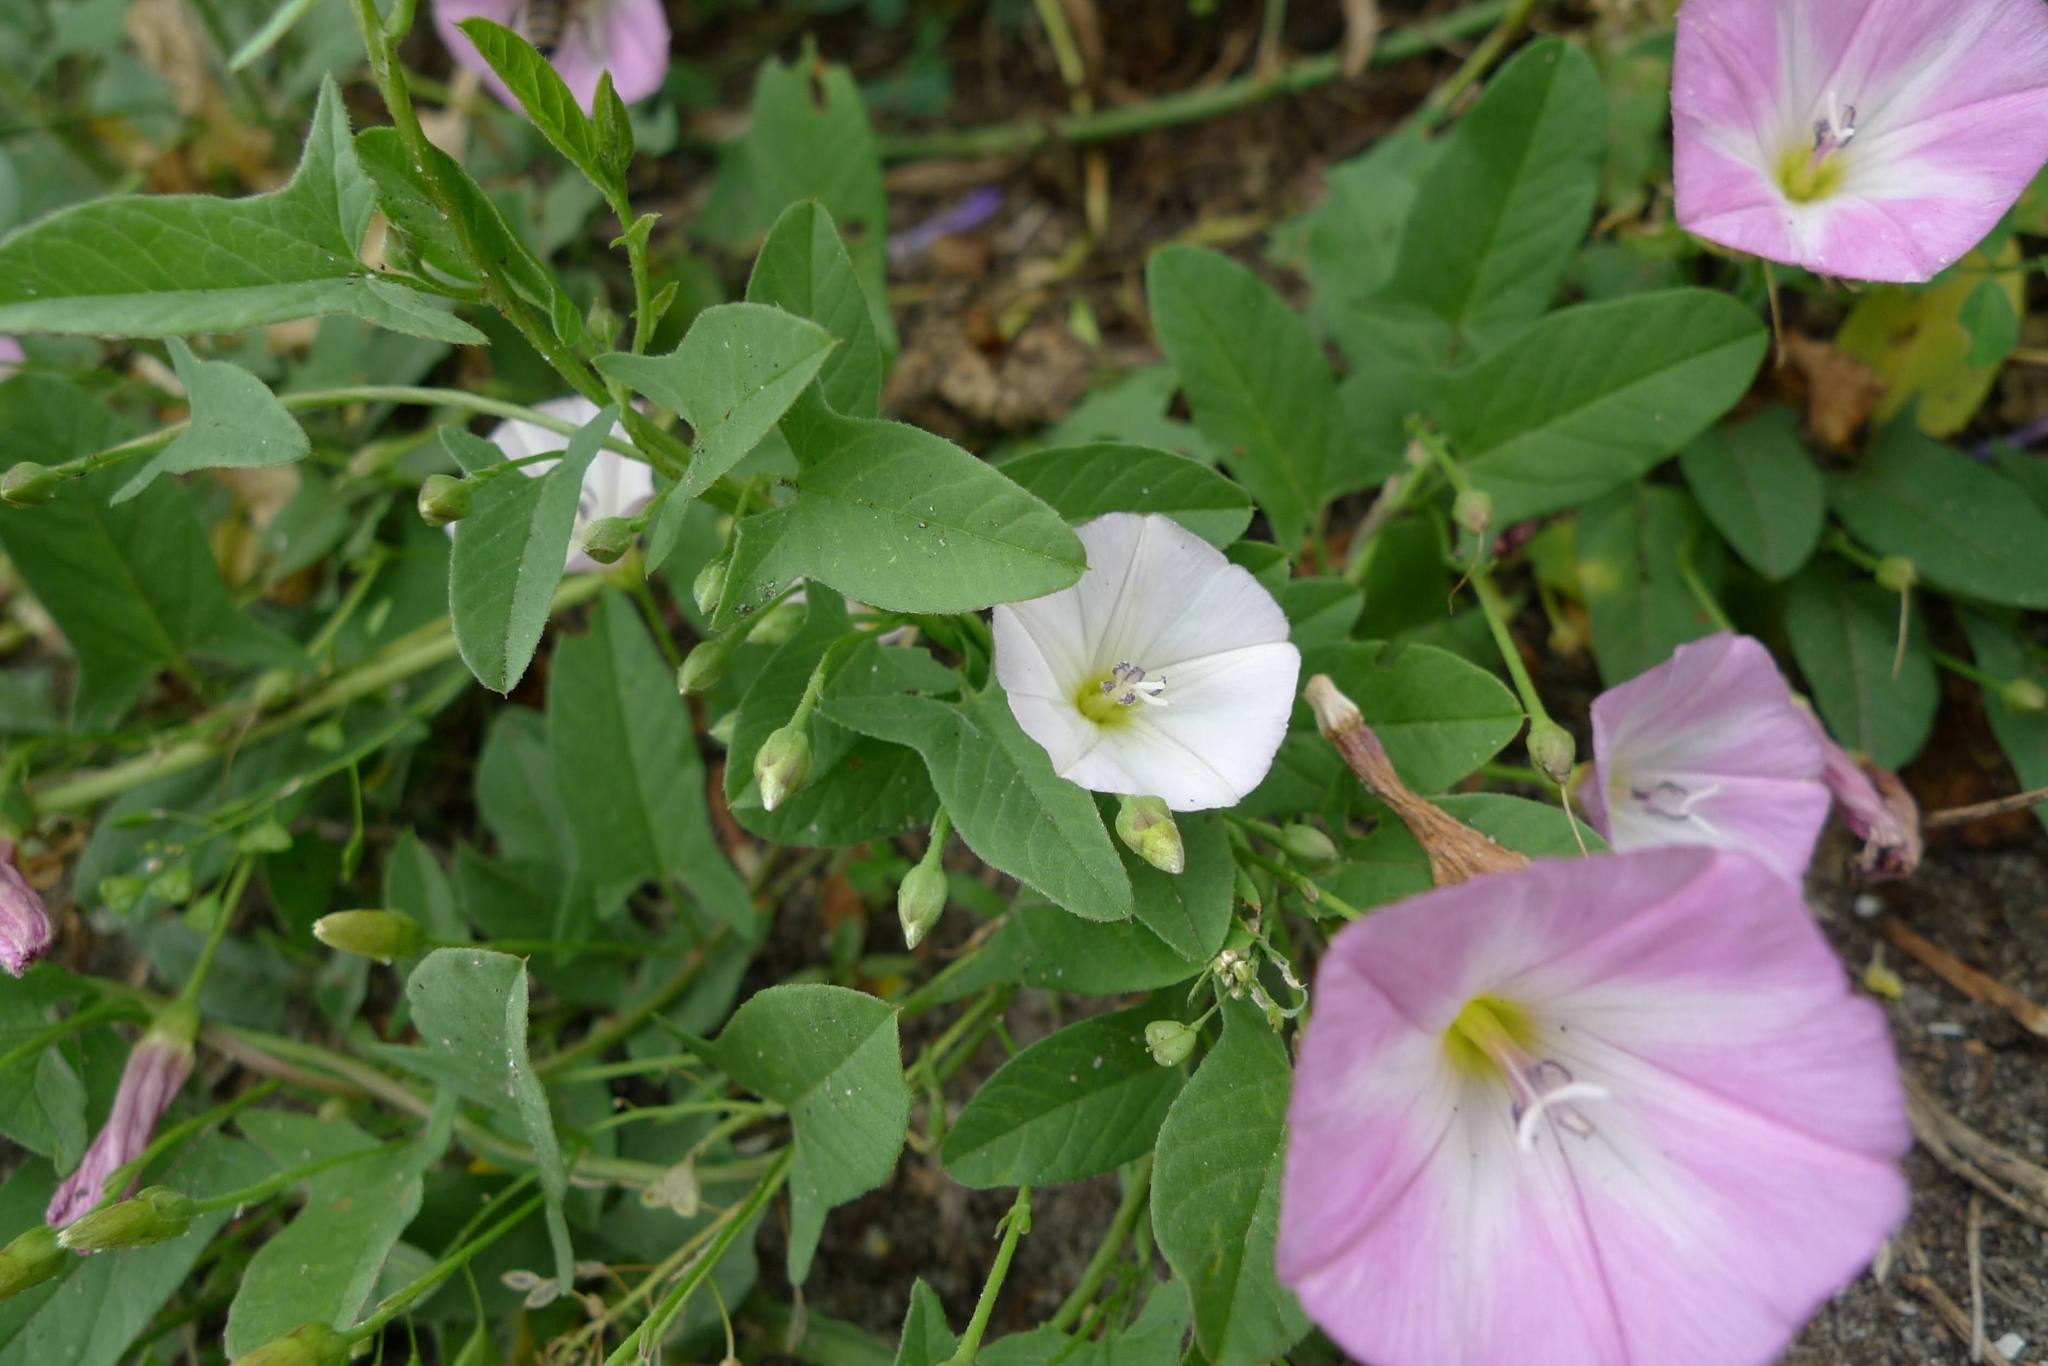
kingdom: Plantae
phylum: Tracheophyta
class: Magnoliopsida
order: Solanales
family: Convolvulaceae
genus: Convolvulus
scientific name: Convolvulus arvensis
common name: Field bindweed
